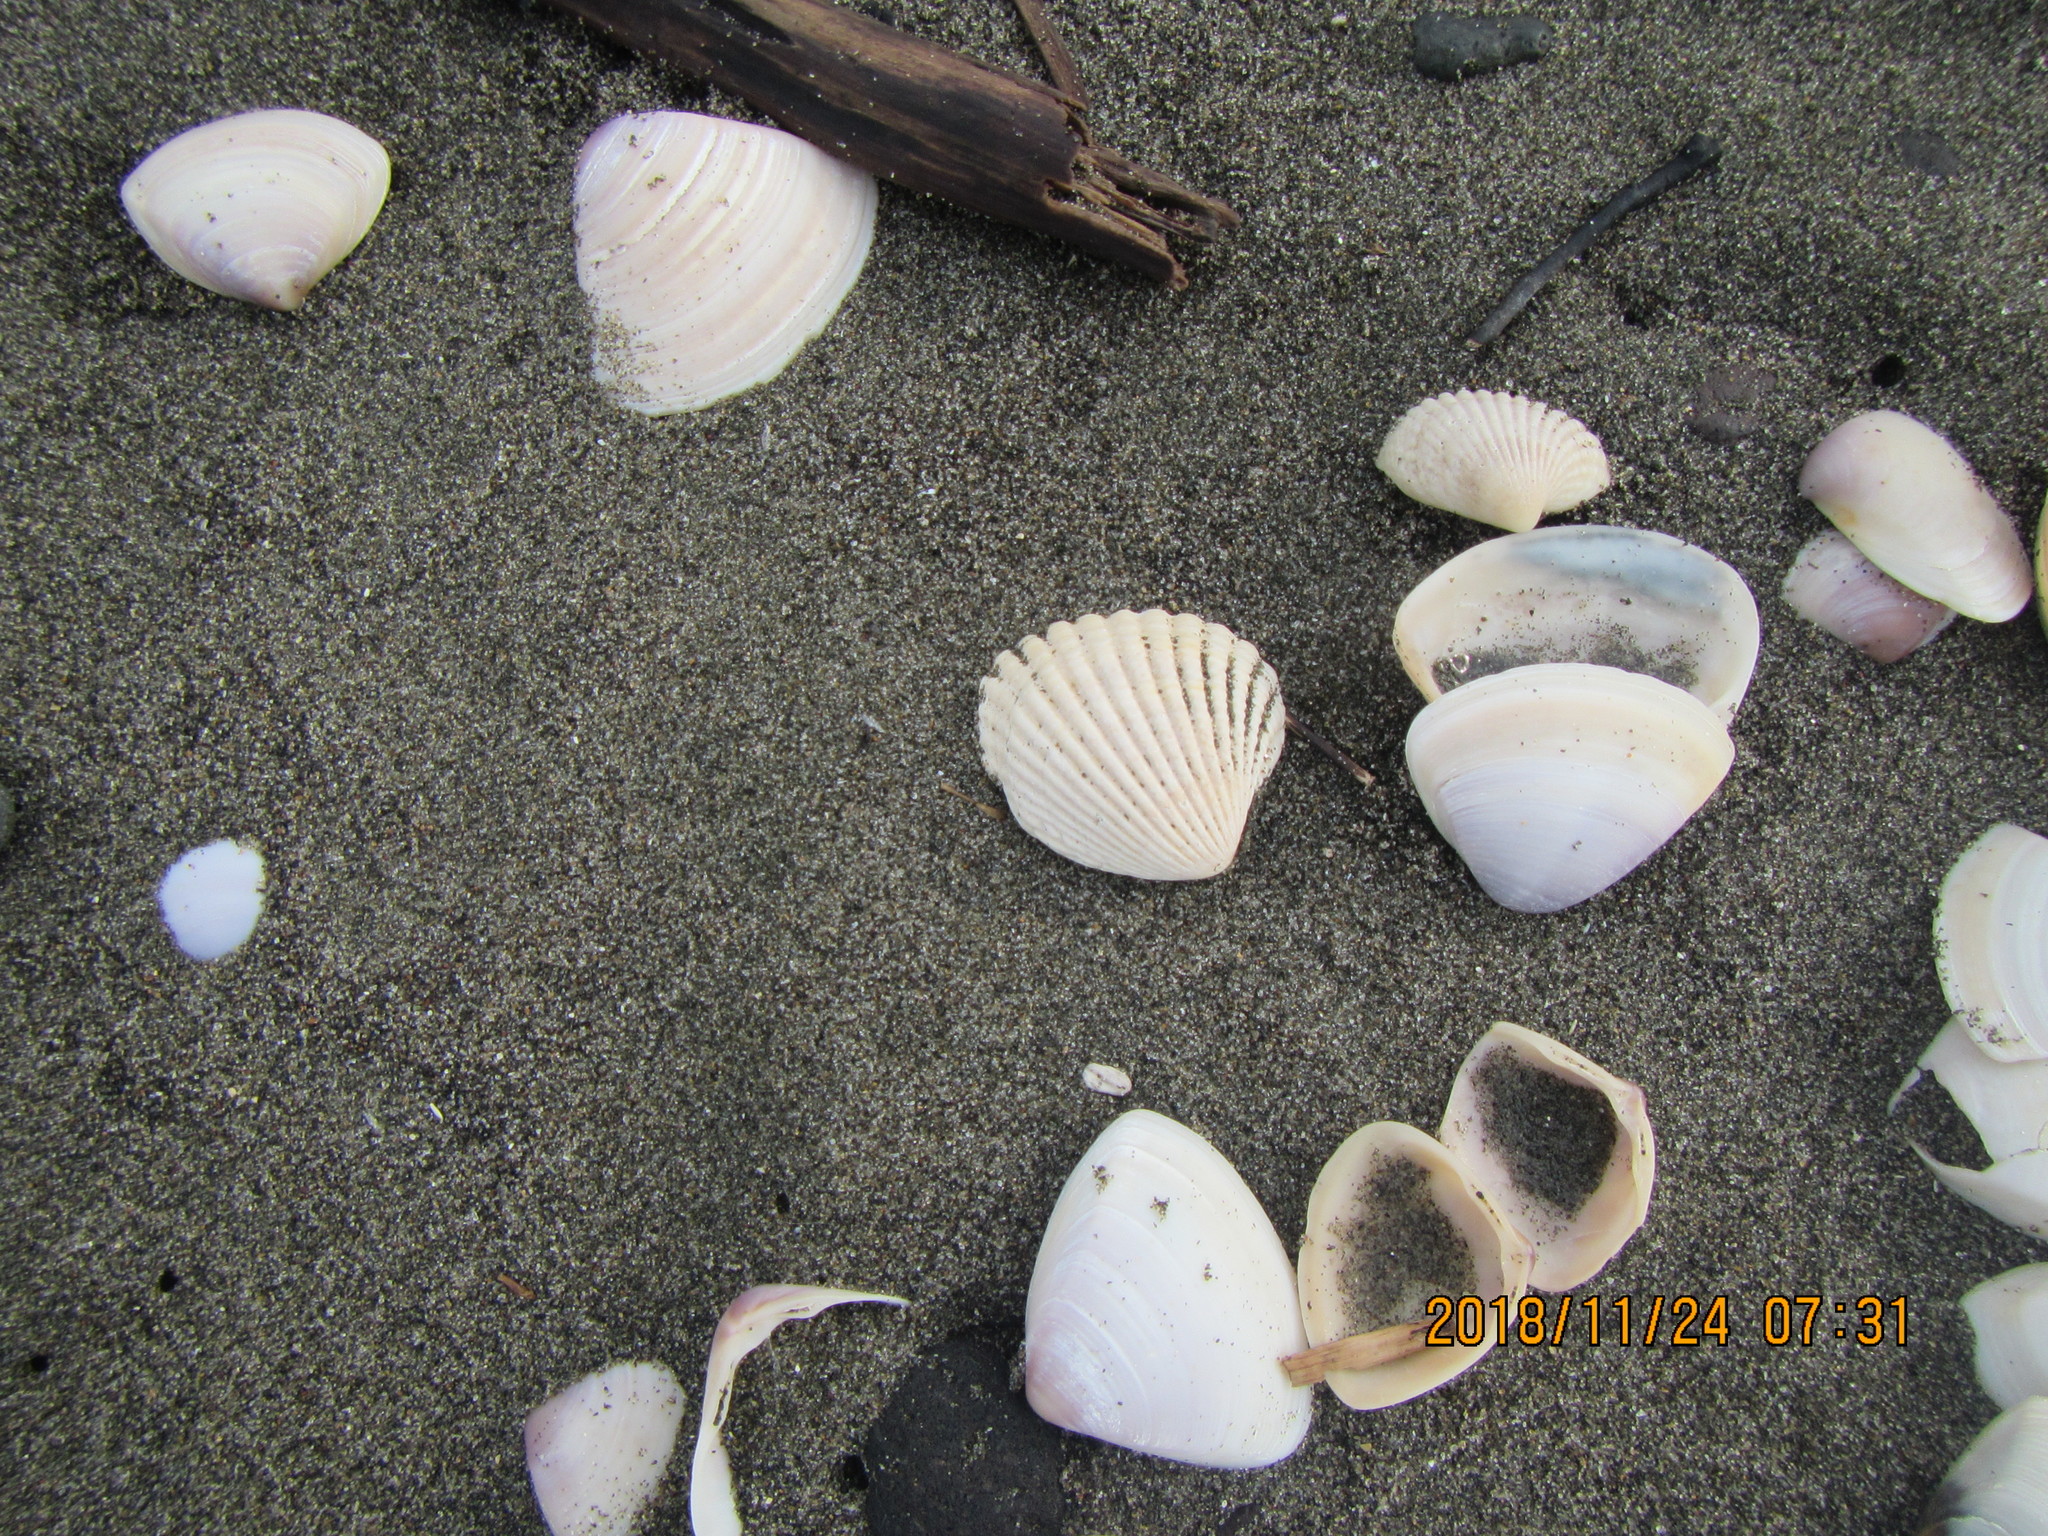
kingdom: Animalia
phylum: Mollusca
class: Bivalvia
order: Carditida
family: Carditidae
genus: Purpurocardia
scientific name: Purpurocardia purpurata
